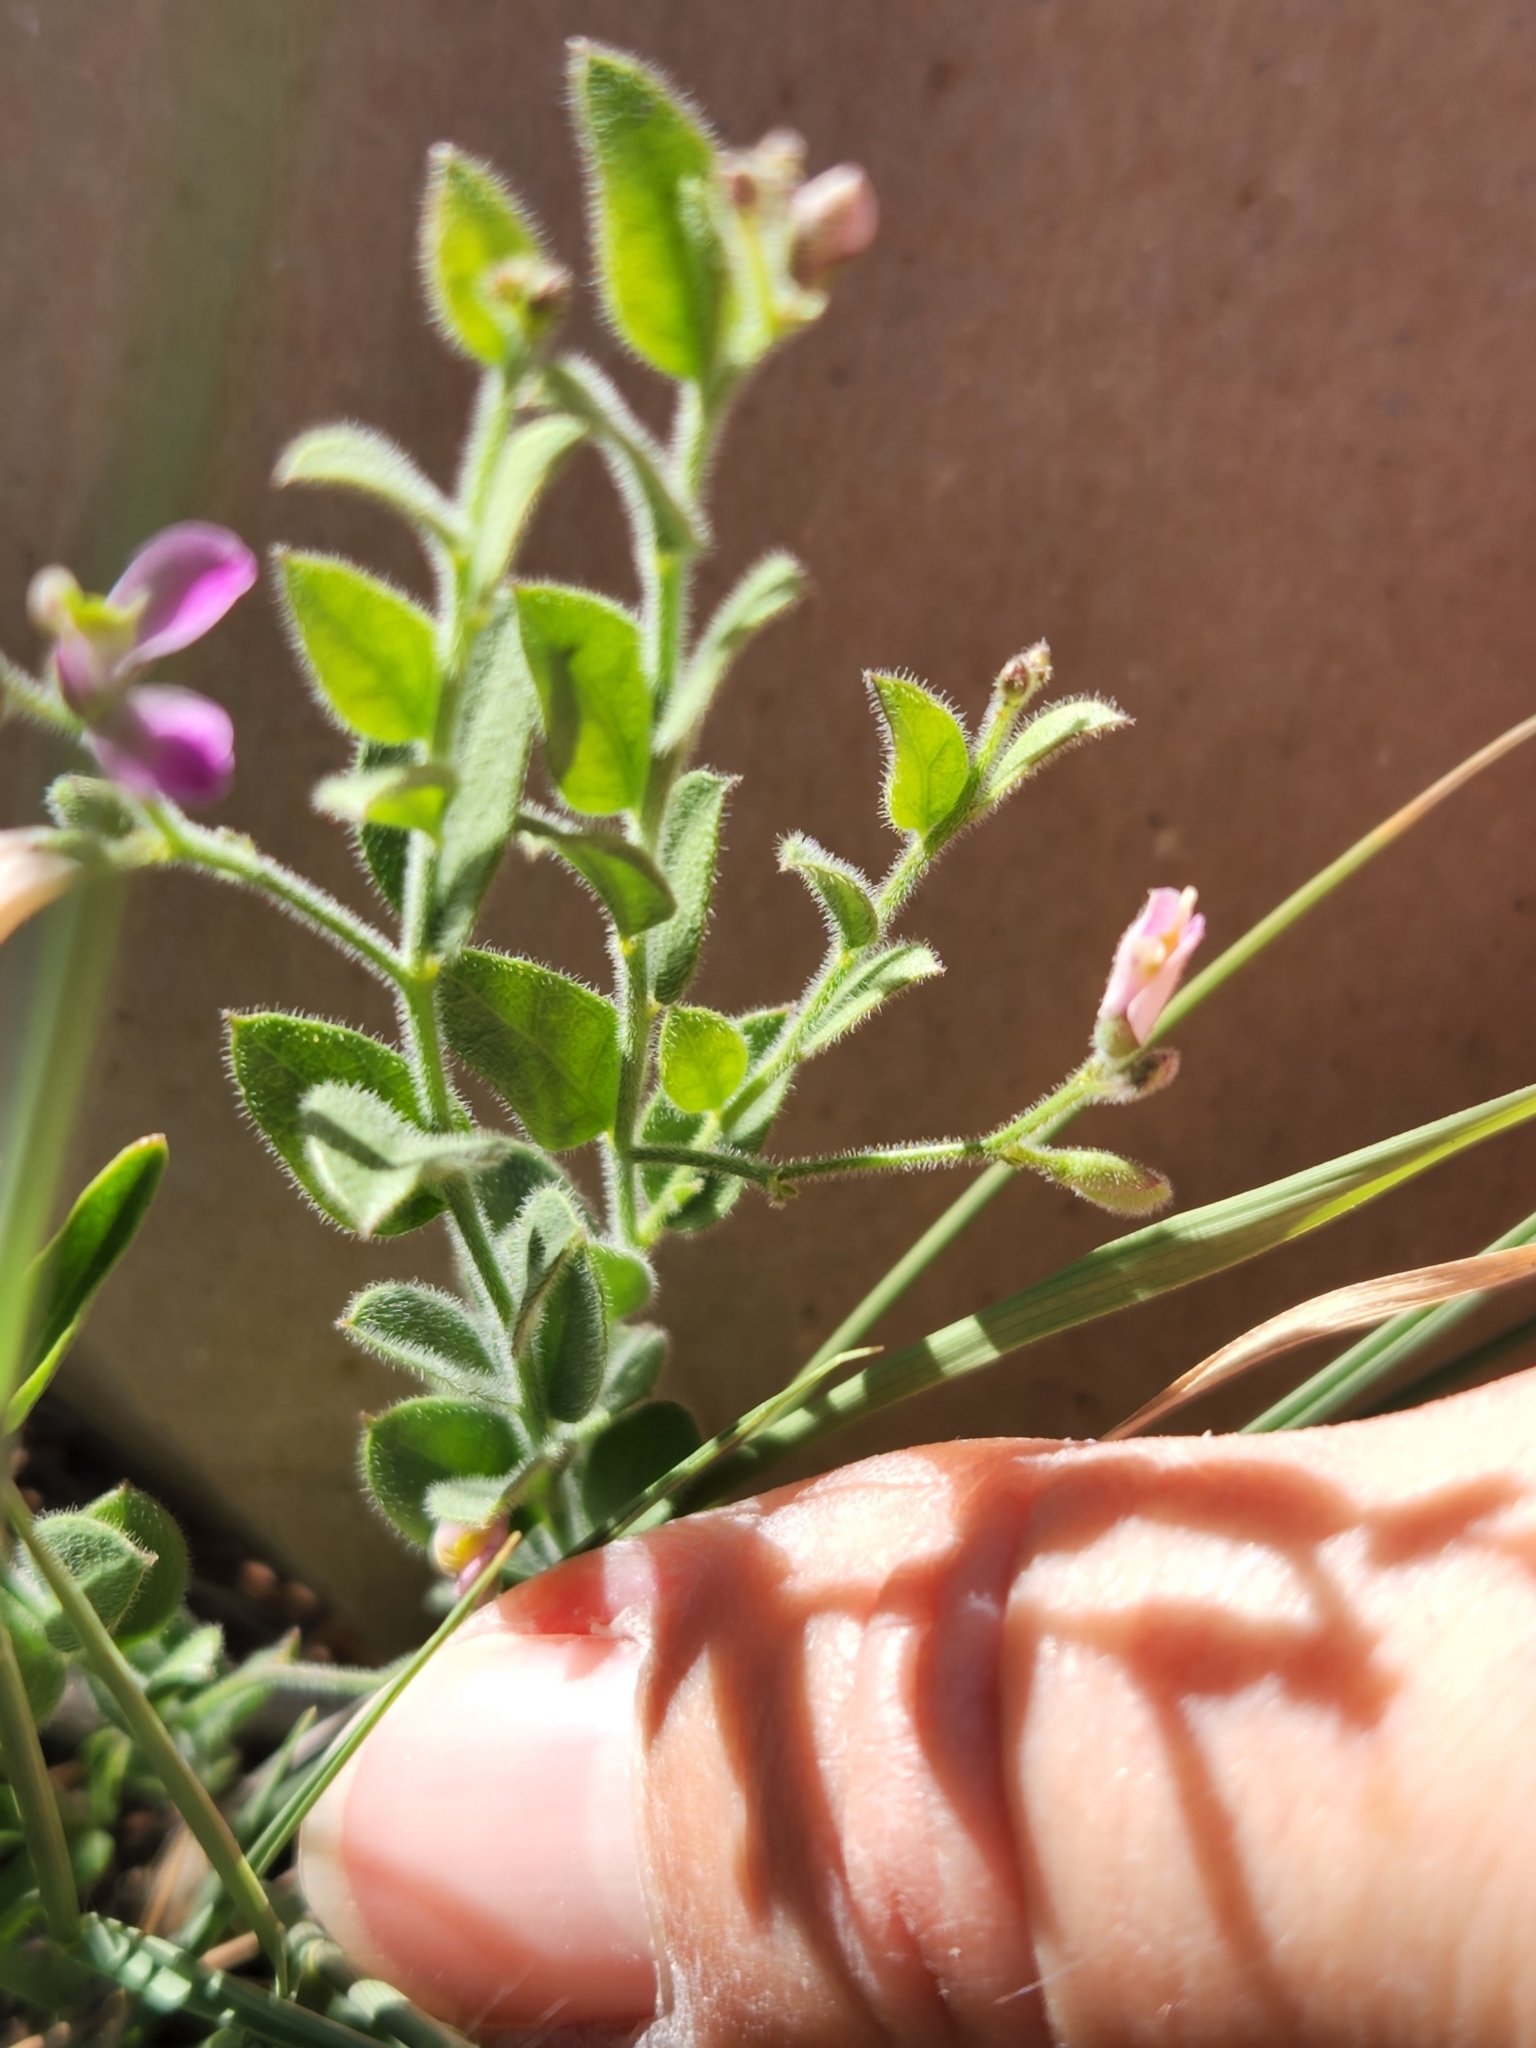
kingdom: Plantae
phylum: Tracheophyta
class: Magnoliopsida
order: Fabales
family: Polygalaceae
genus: Rhinotropis
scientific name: Rhinotropis lindheimeri
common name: Shrubby milkwort
